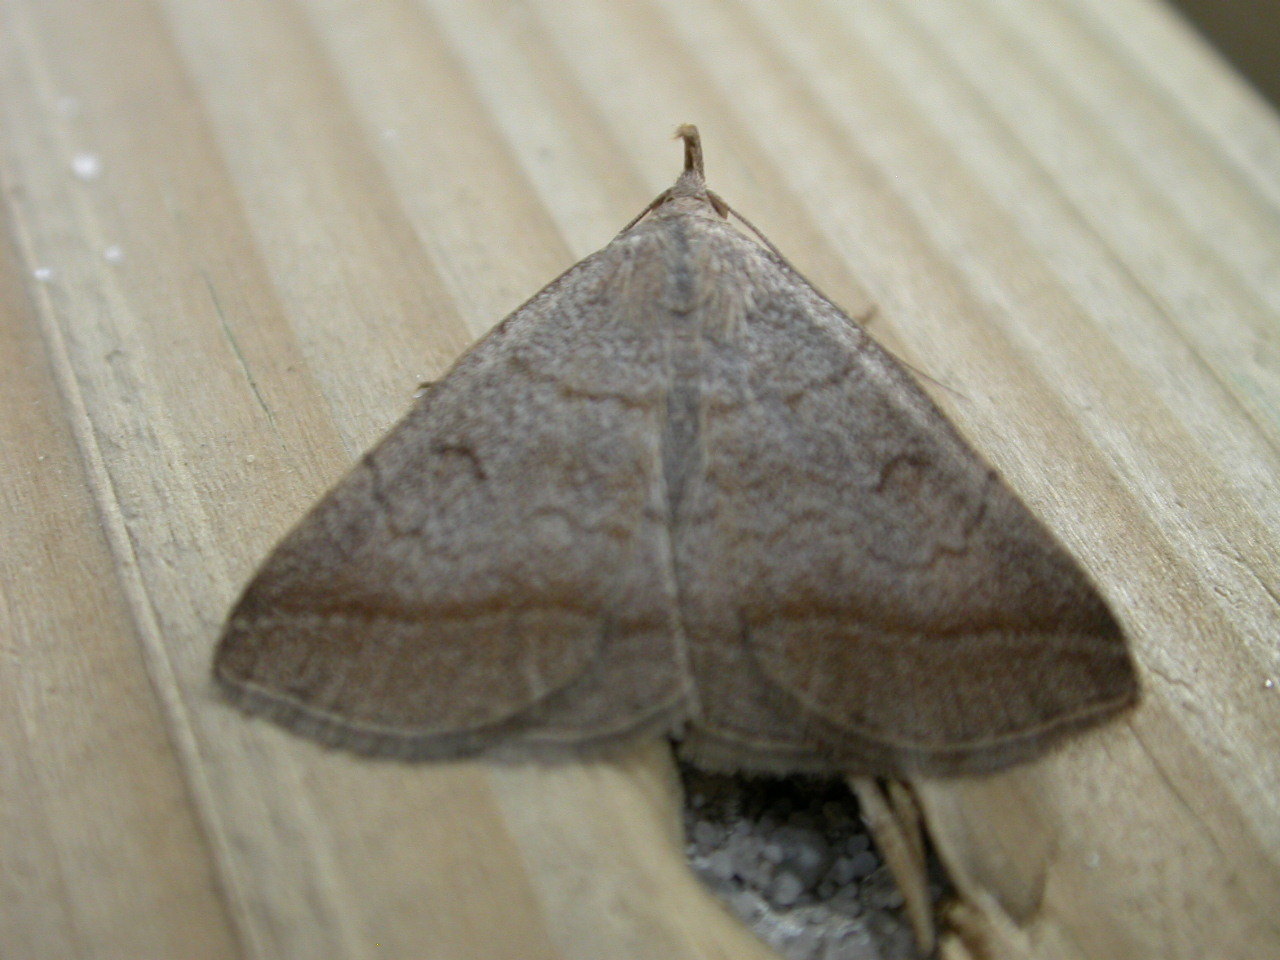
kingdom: Animalia
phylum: Arthropoda
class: Insecta
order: Lepidoptera
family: Erebidae
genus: Zanclognatha
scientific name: Zanclognatha lunalis
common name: Jubilee fan-foot
